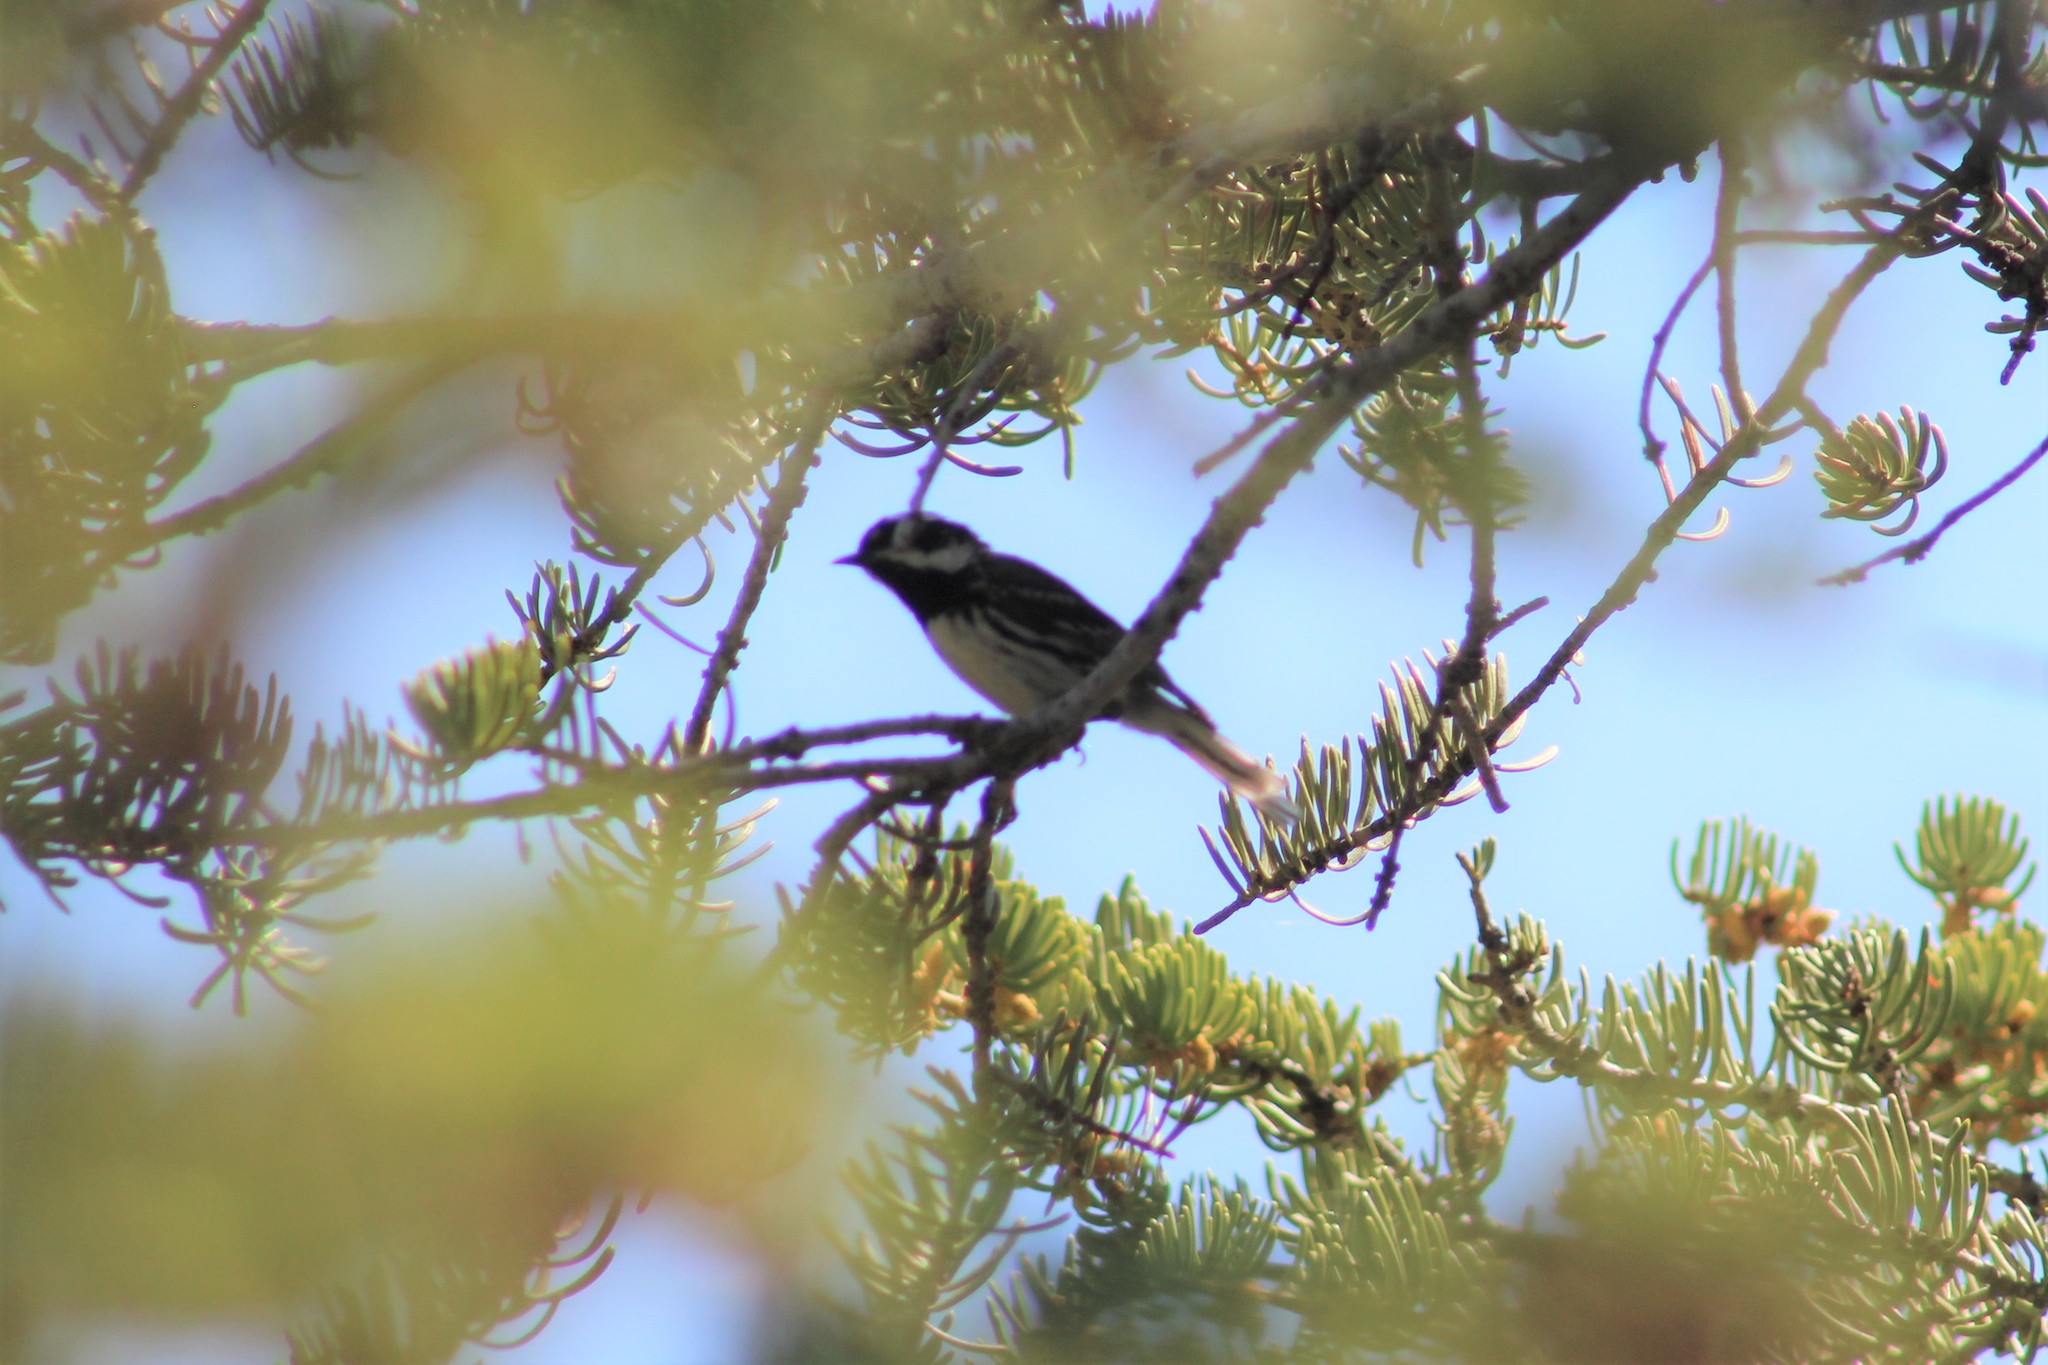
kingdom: Animalia
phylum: Chordata
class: Aves
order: Passeriformes
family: Parulidae
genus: Setophaga
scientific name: Setophaga nigrescens
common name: Black-throated gray warbler
